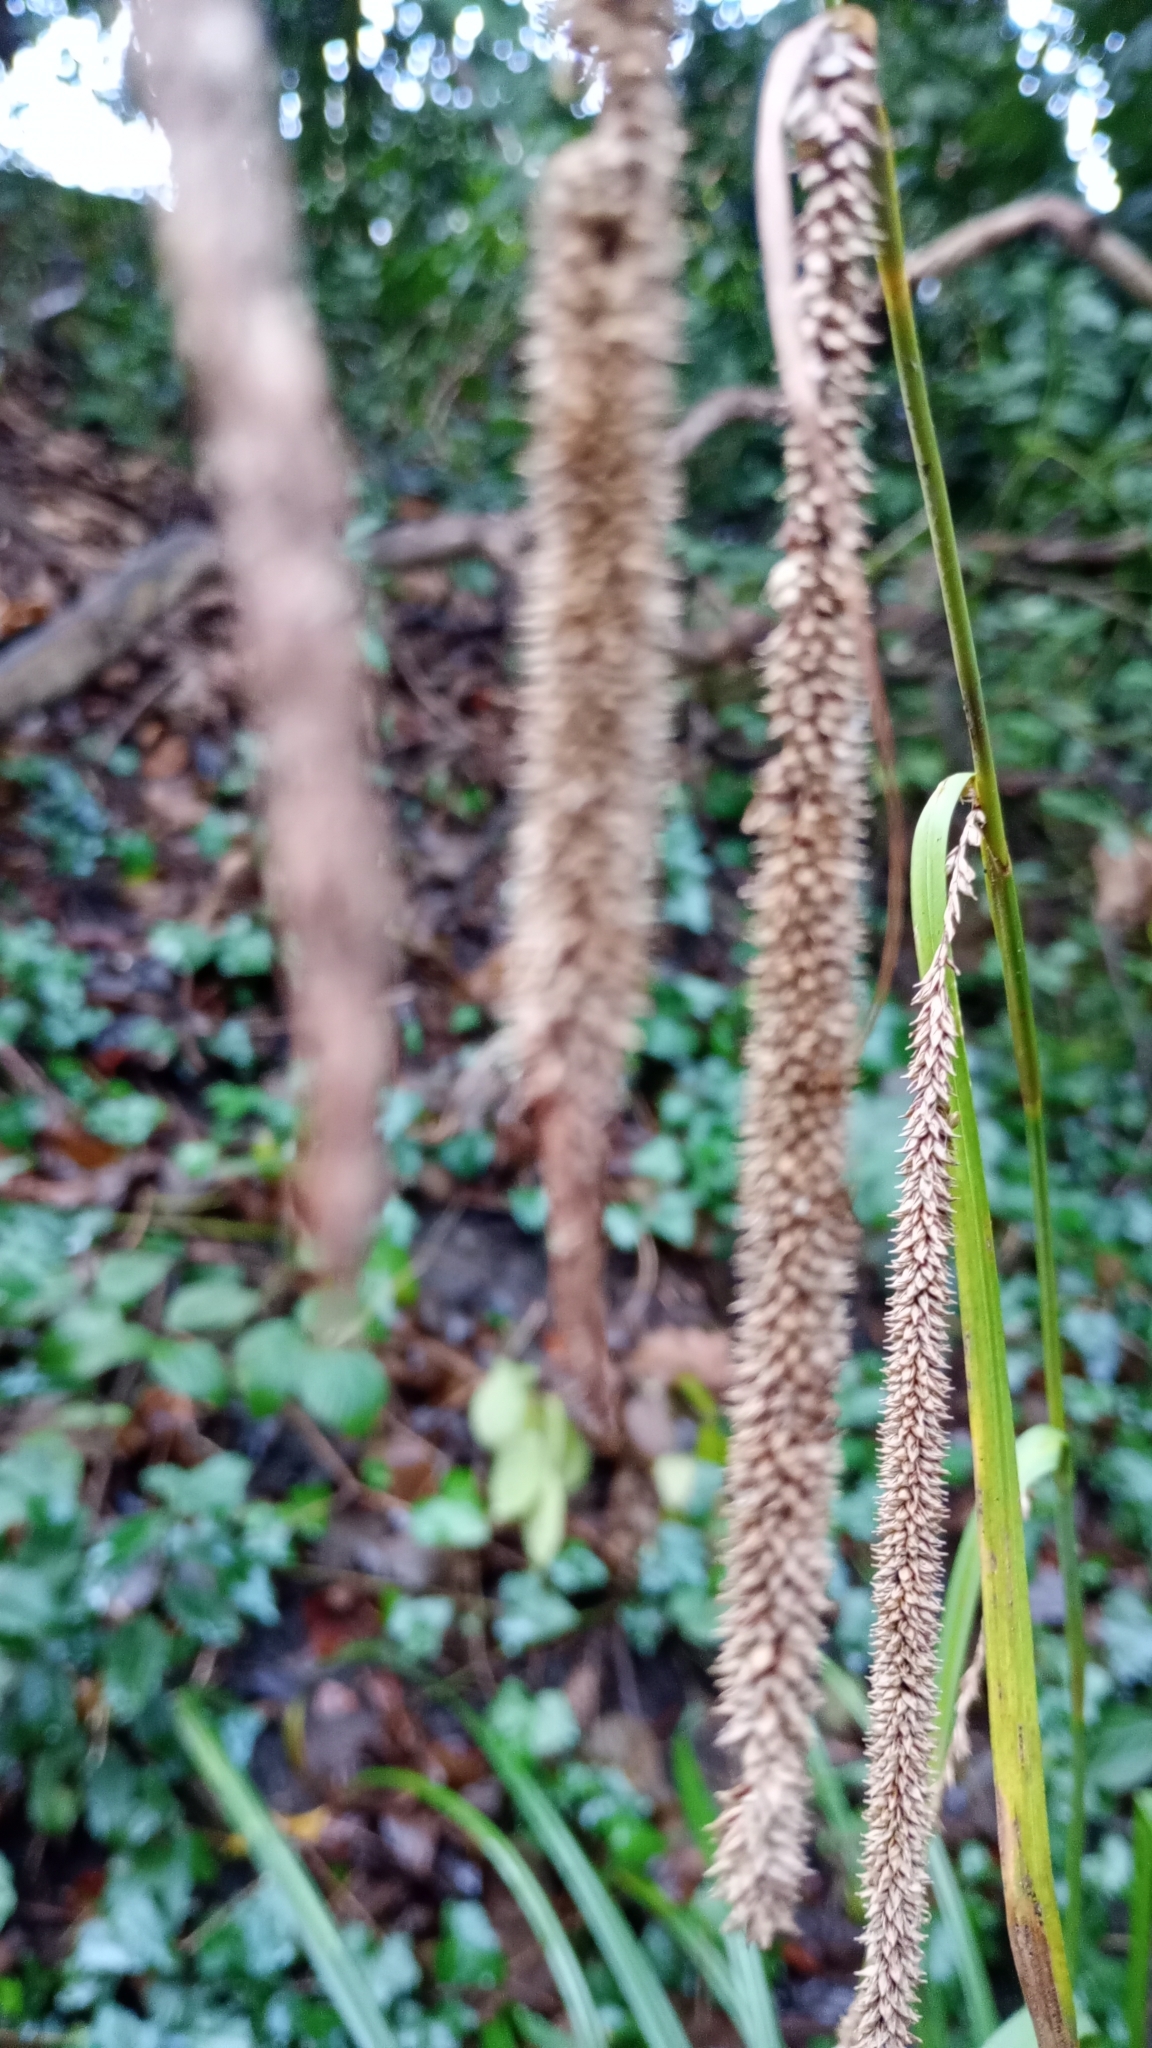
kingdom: Plantae
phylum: Tracheophyta
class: Liliopsida
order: Poales
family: Cyperaceae
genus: Carex
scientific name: Carex pendula
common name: Pendulous sedge
